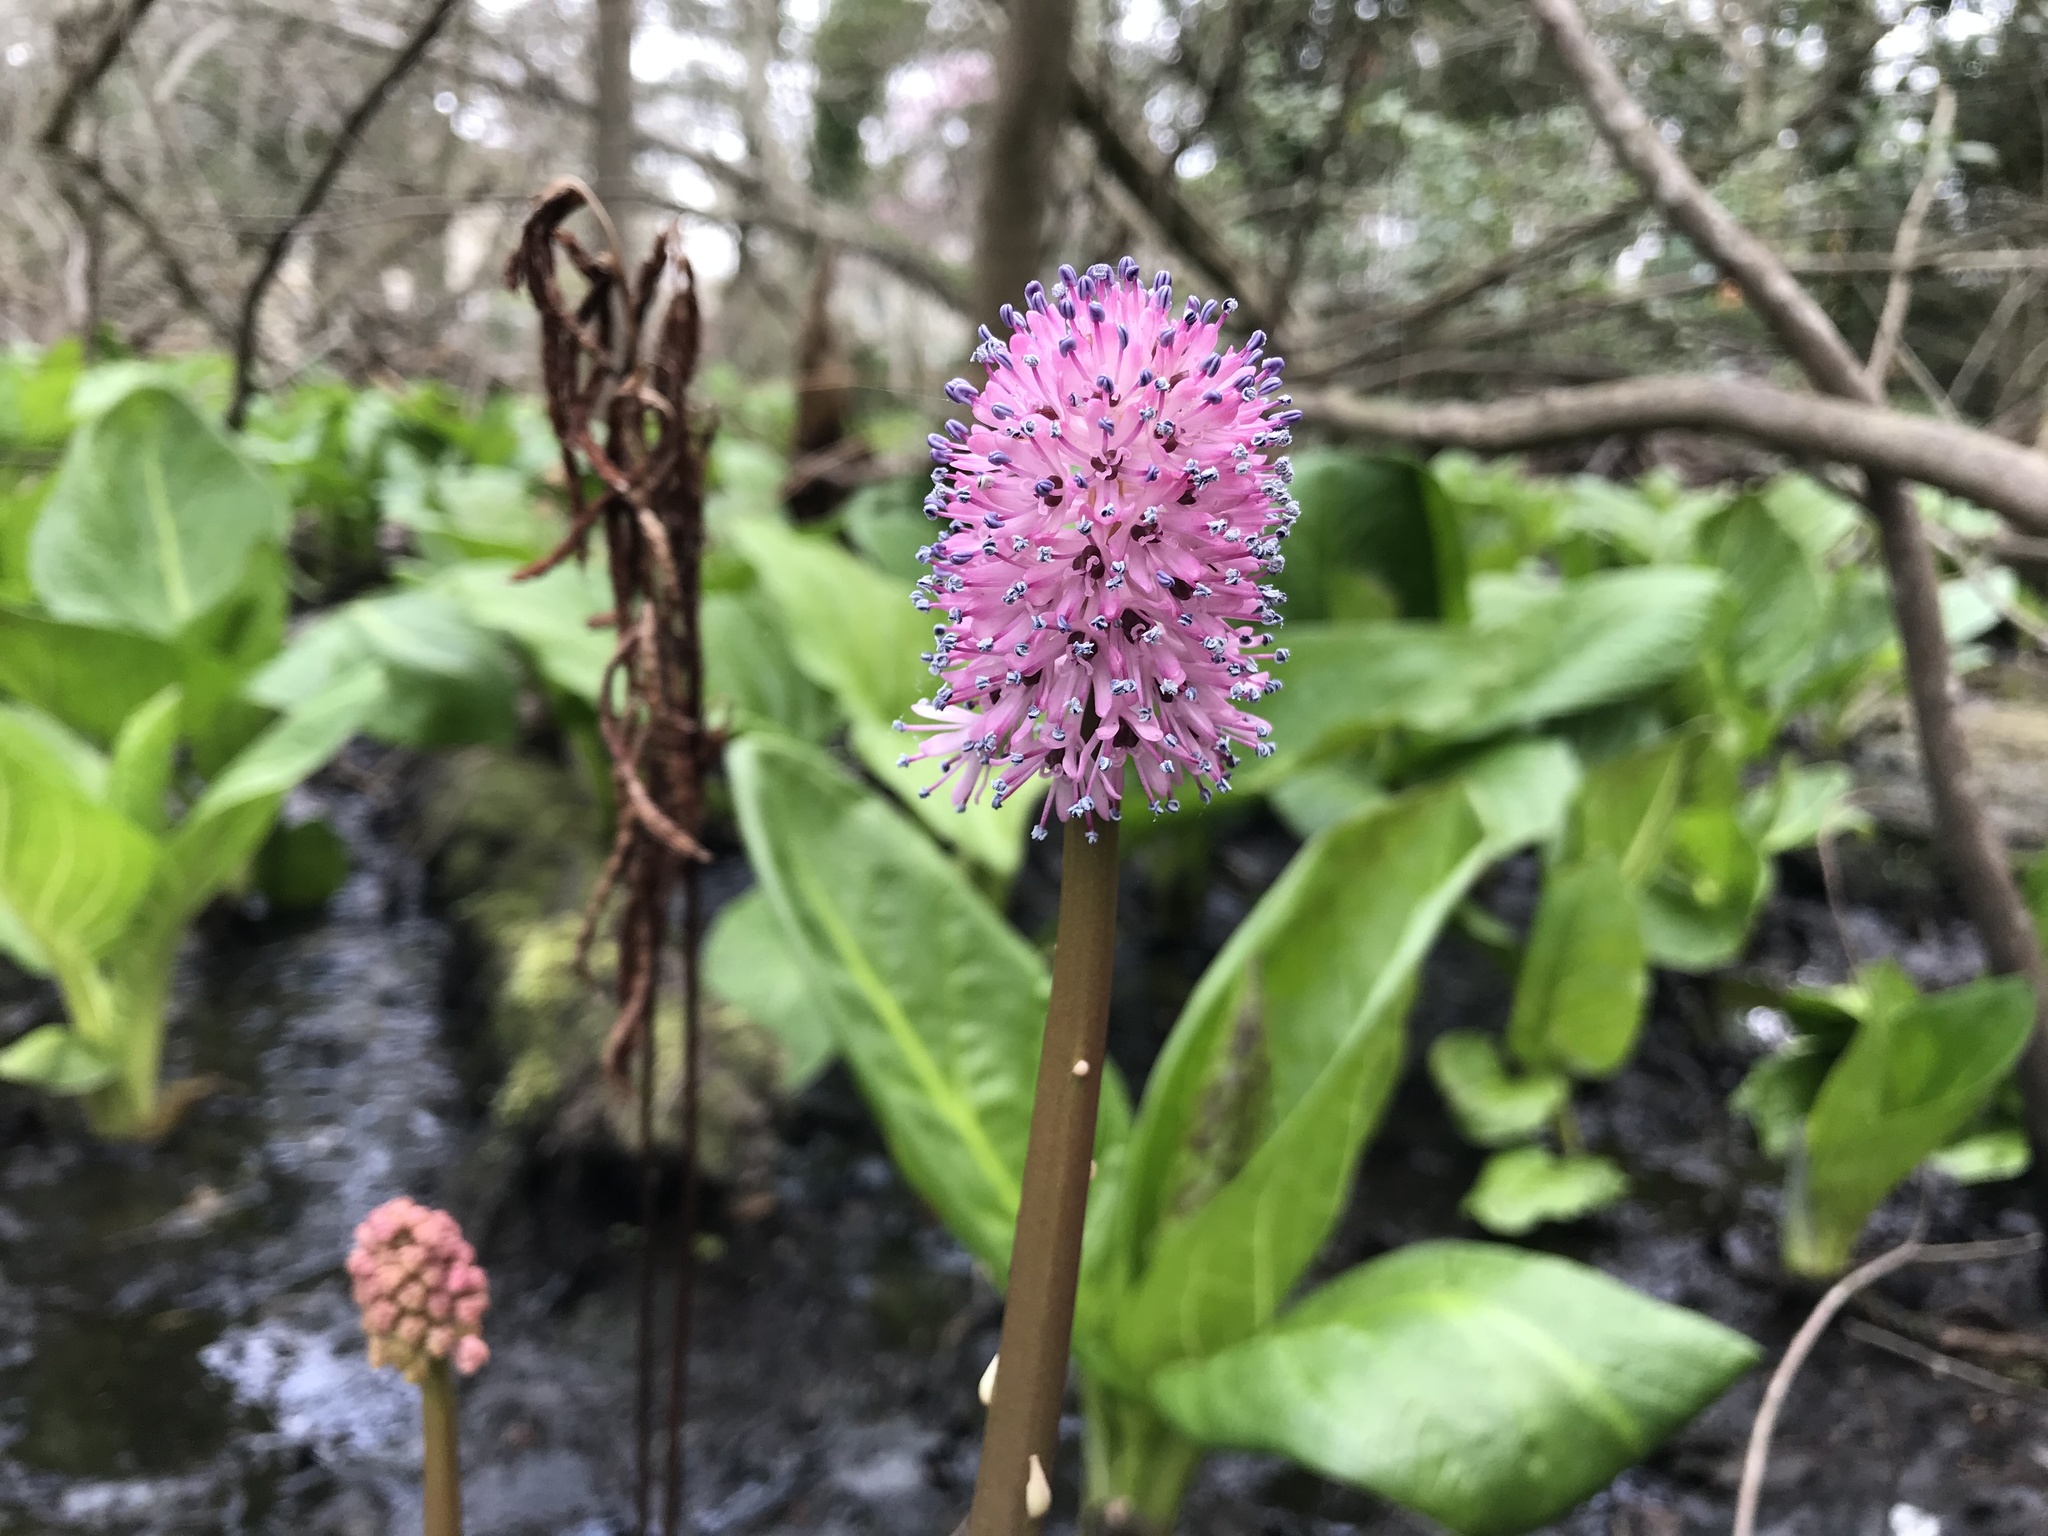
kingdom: Plantae
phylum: Tracheophyta
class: Liliopsida
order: Liliales
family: Melanthiaceae
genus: Helonias
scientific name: Helonias bullata
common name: Swamp-pink
